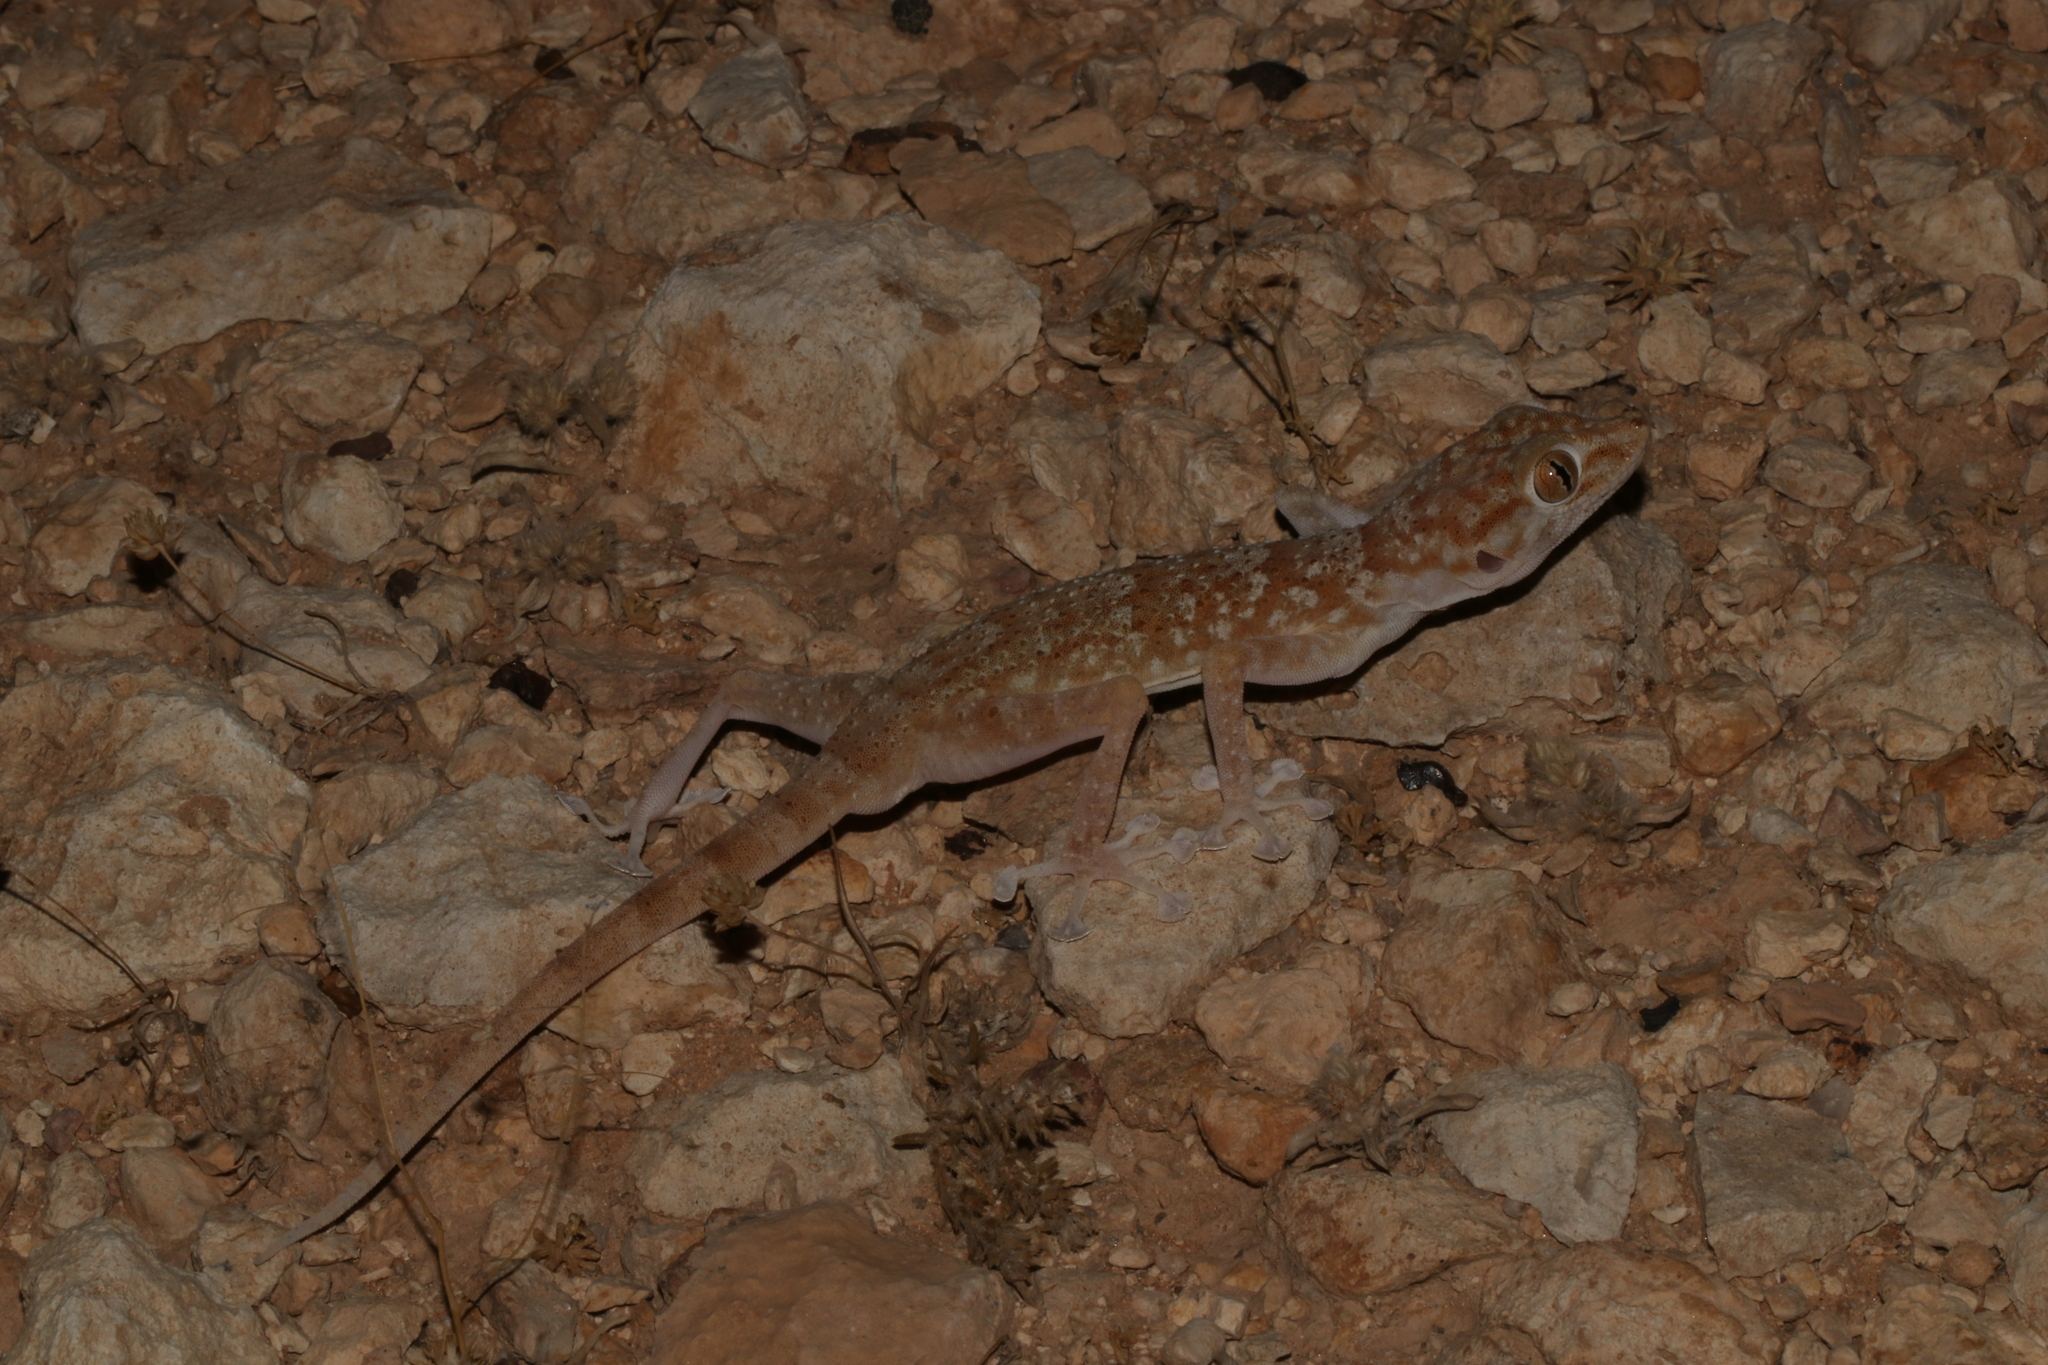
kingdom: Animalia
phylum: Chordata
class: Squamata
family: Phyllodactylidae
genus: Ptyodactylus
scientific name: Ptyodactylus hasselquistii
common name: Hasselquist’s fan-footed gecko
